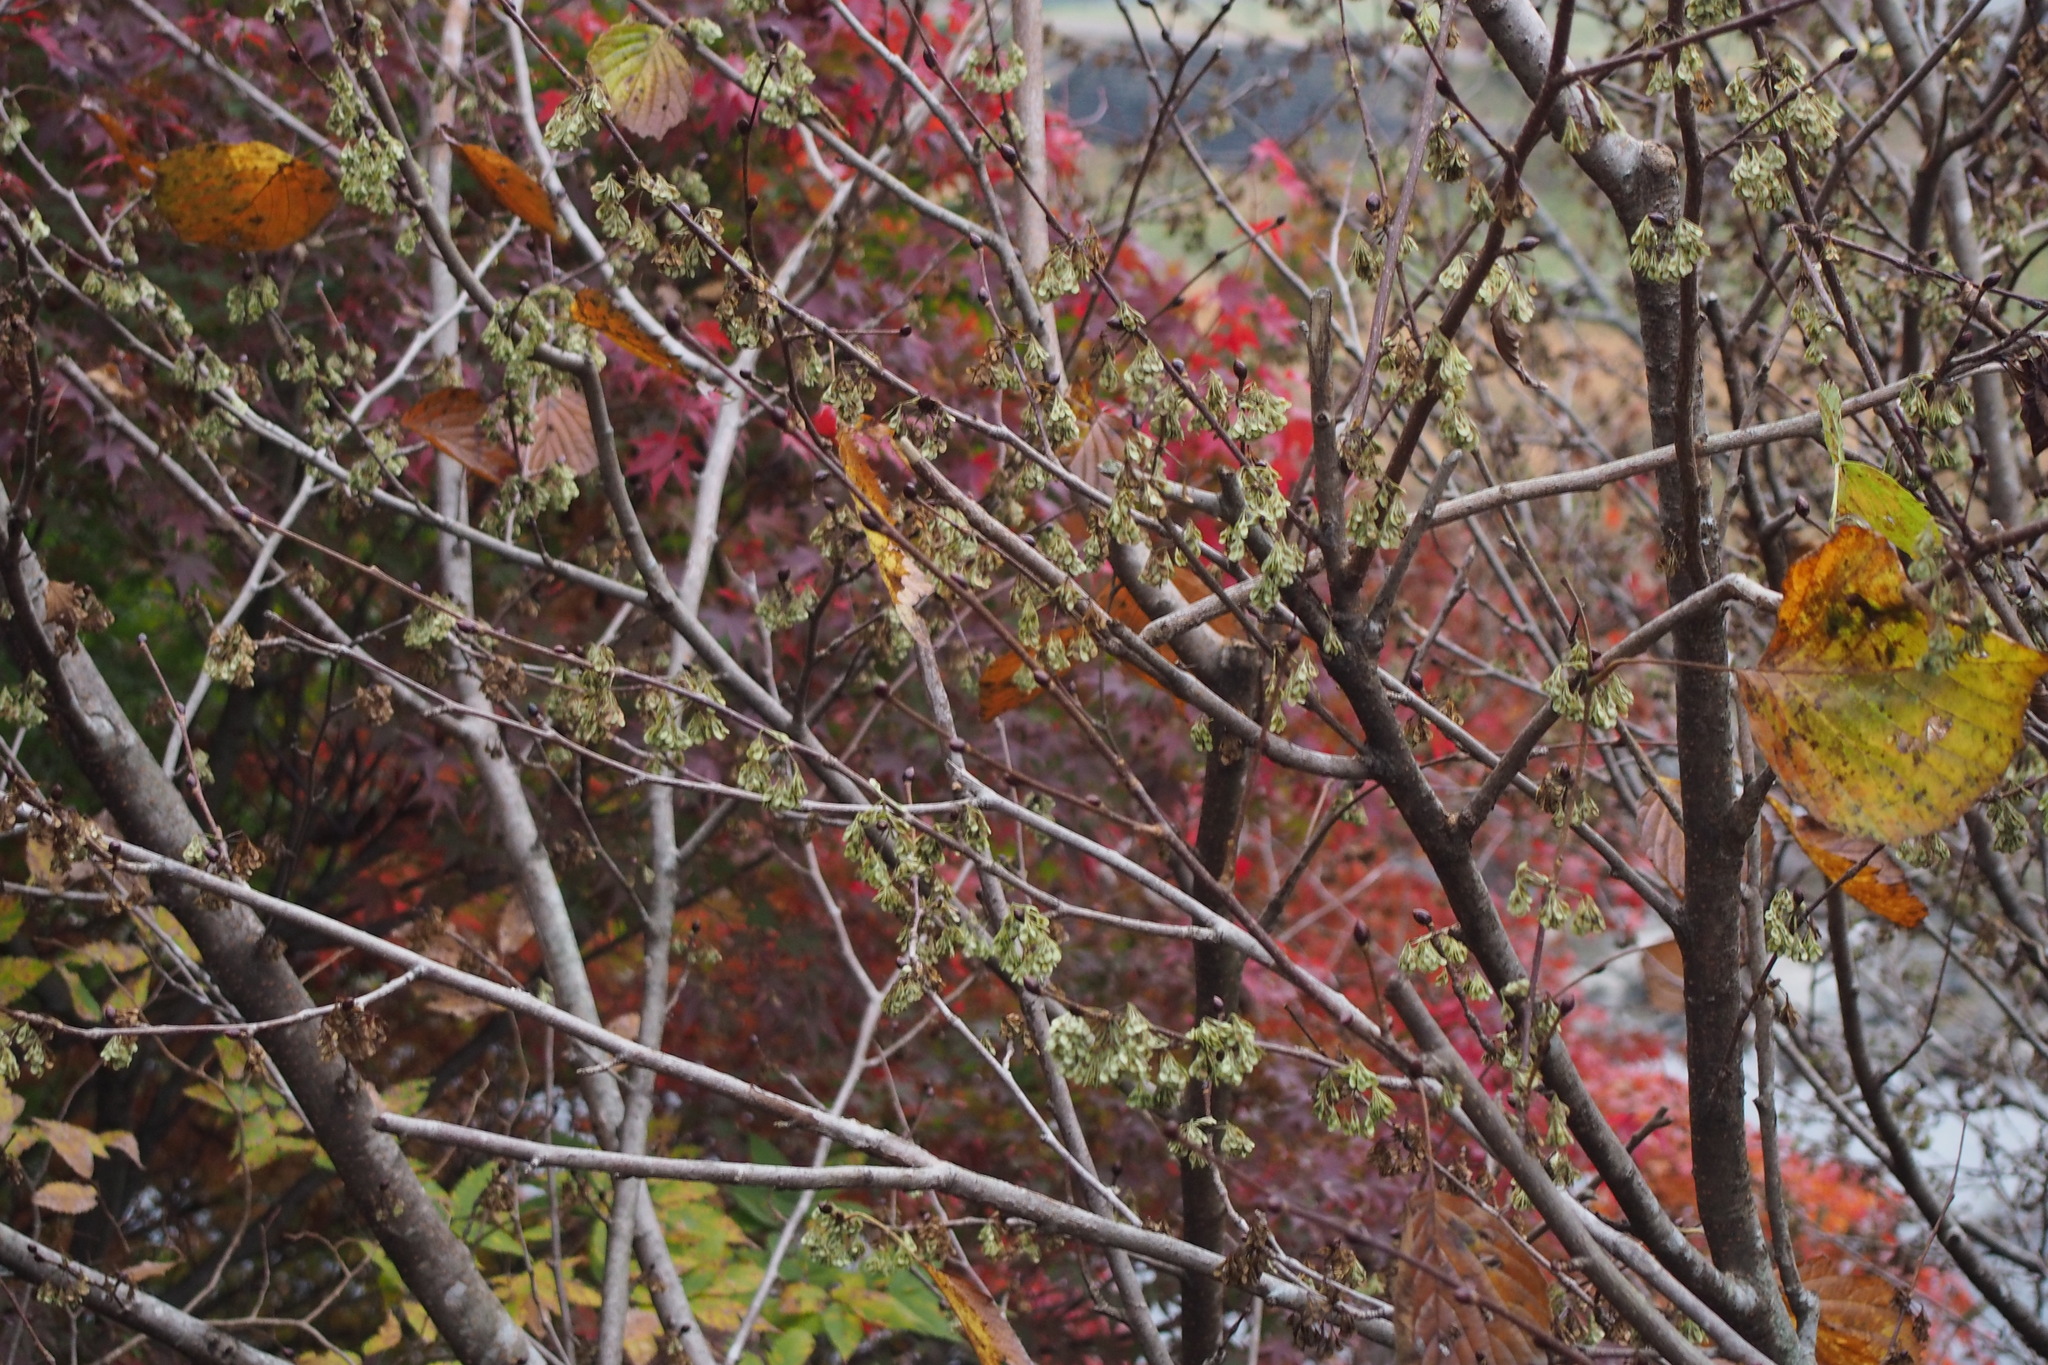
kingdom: Plantae
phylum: Tracheophyta
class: Magnoliopsida
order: Ranunculales
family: Eupteleaceae
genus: Euptelea
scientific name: Euptelea polyandra
